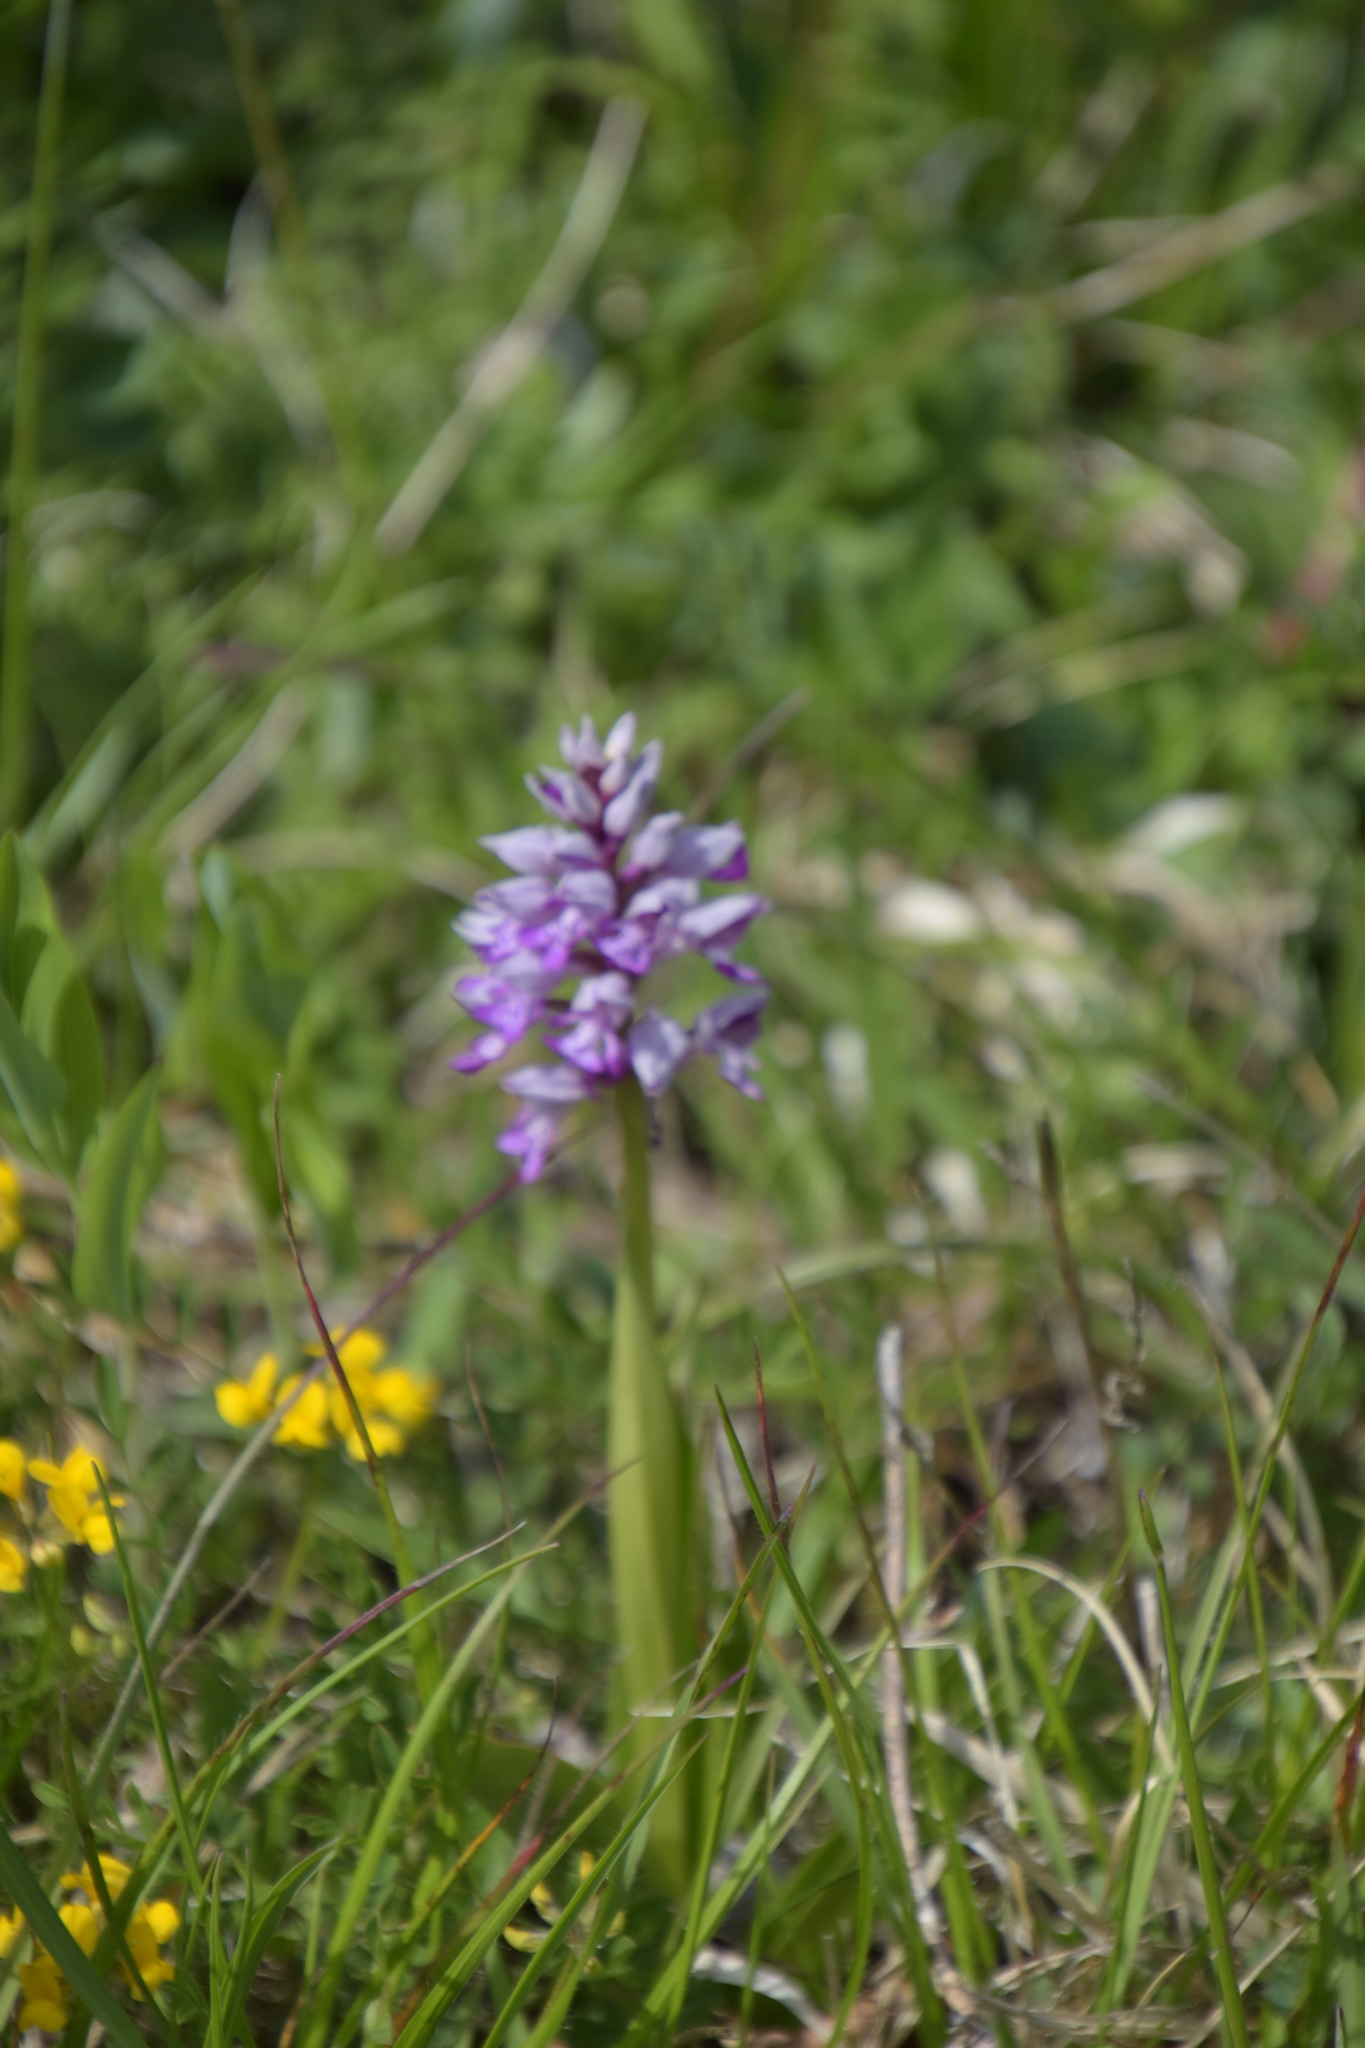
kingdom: Plantae
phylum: Tracheophyta
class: Liliopsida
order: Asparagales
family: Orchidaceae
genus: Orchis
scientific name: Orchis militaris
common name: Military orchid
